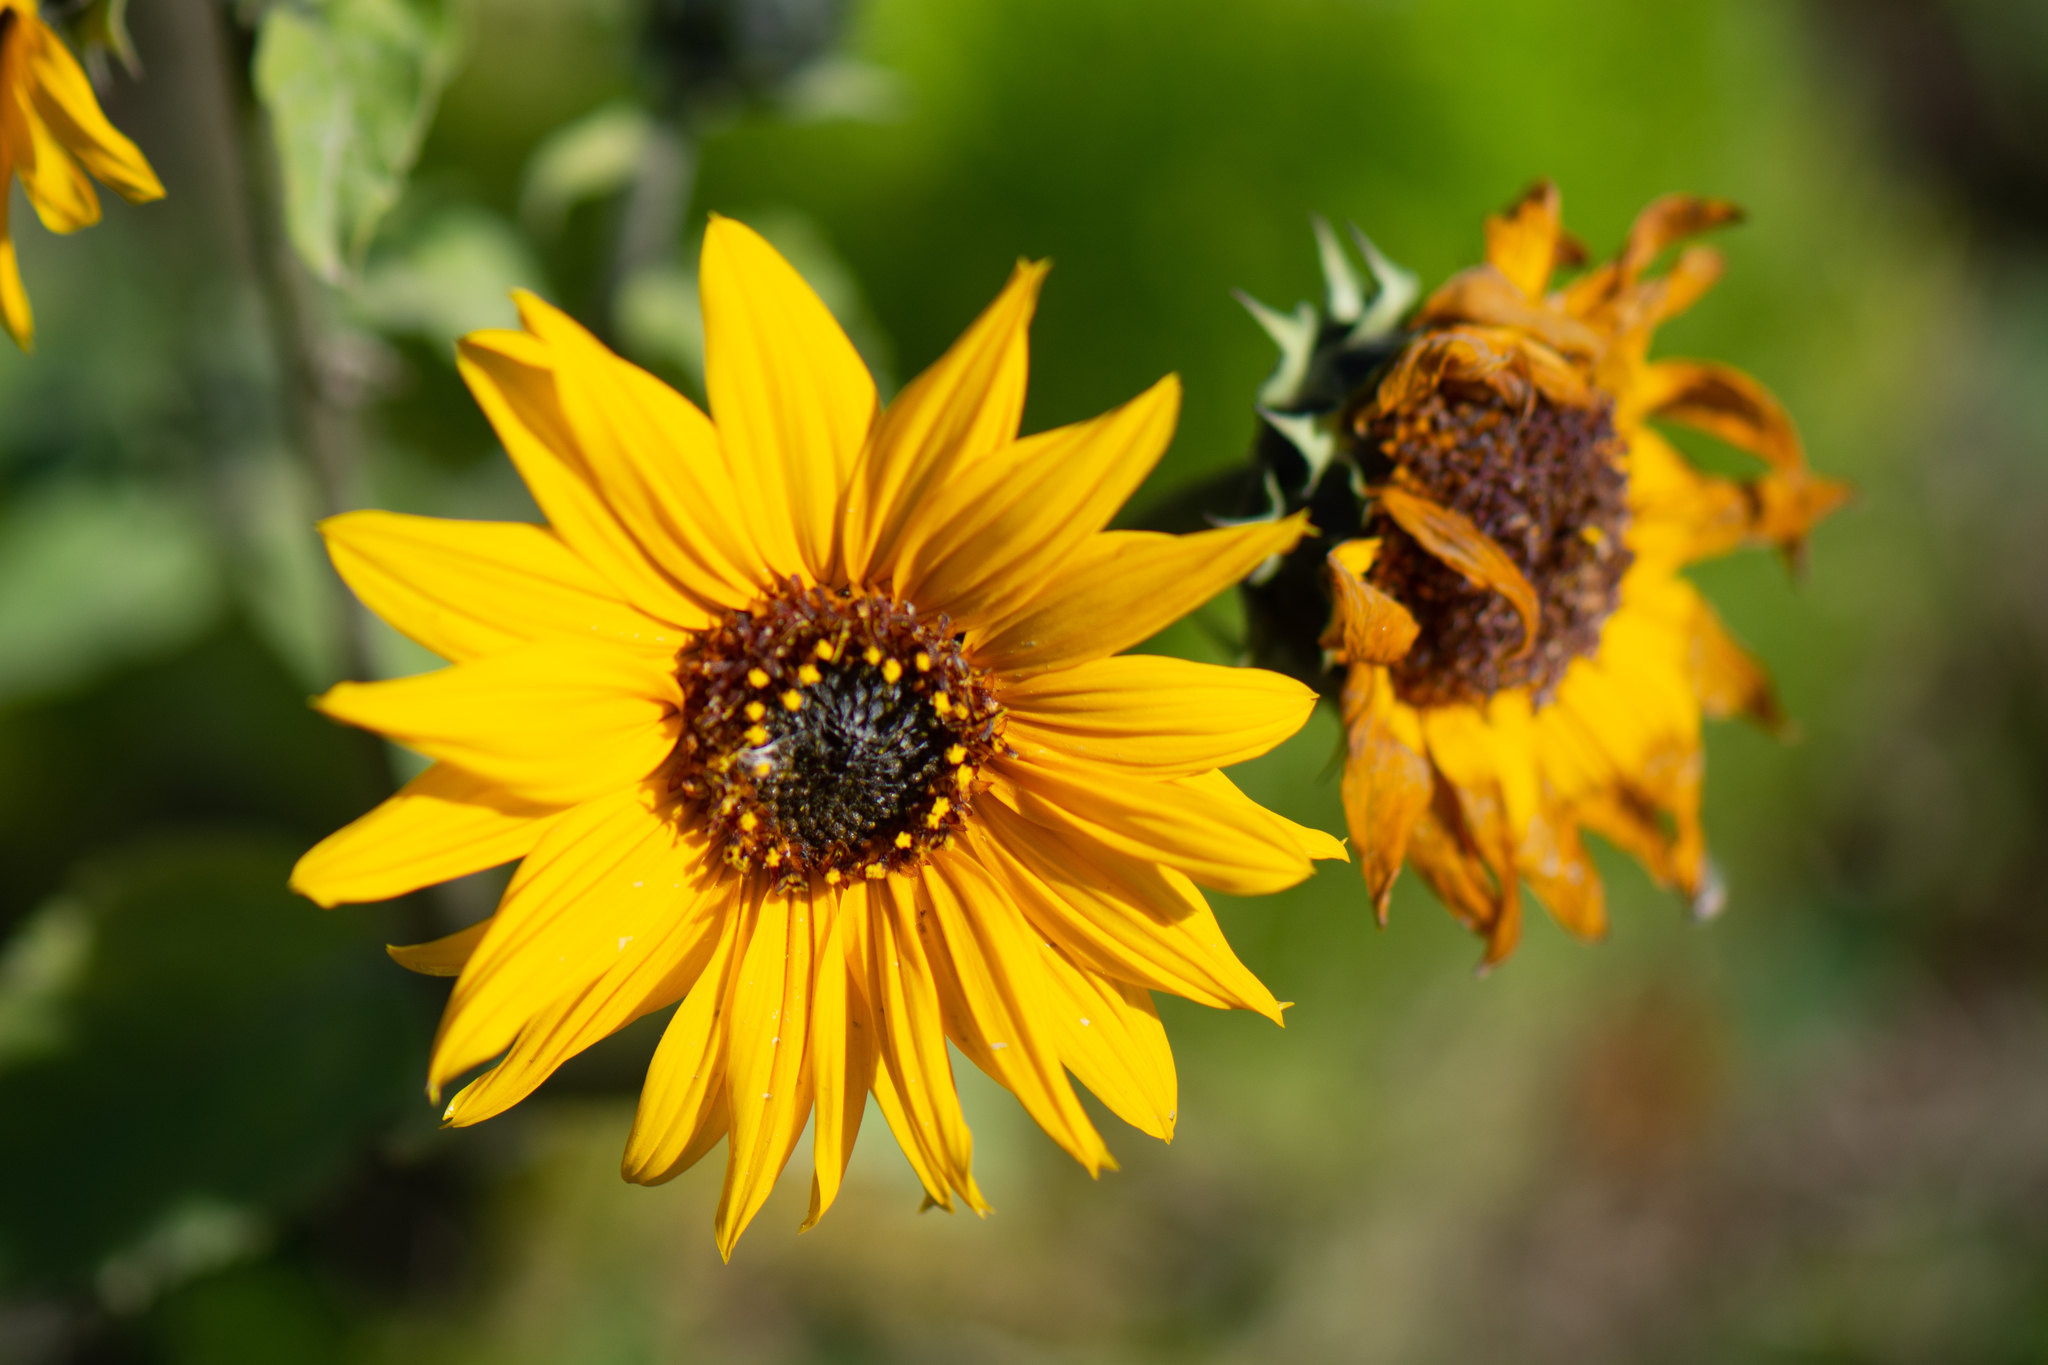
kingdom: Plantae
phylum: Tracheophyta
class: Magnoliopsida
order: Asterales
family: Asteraceae
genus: Helianthus
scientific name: Helianthus annuus
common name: Sunflower
